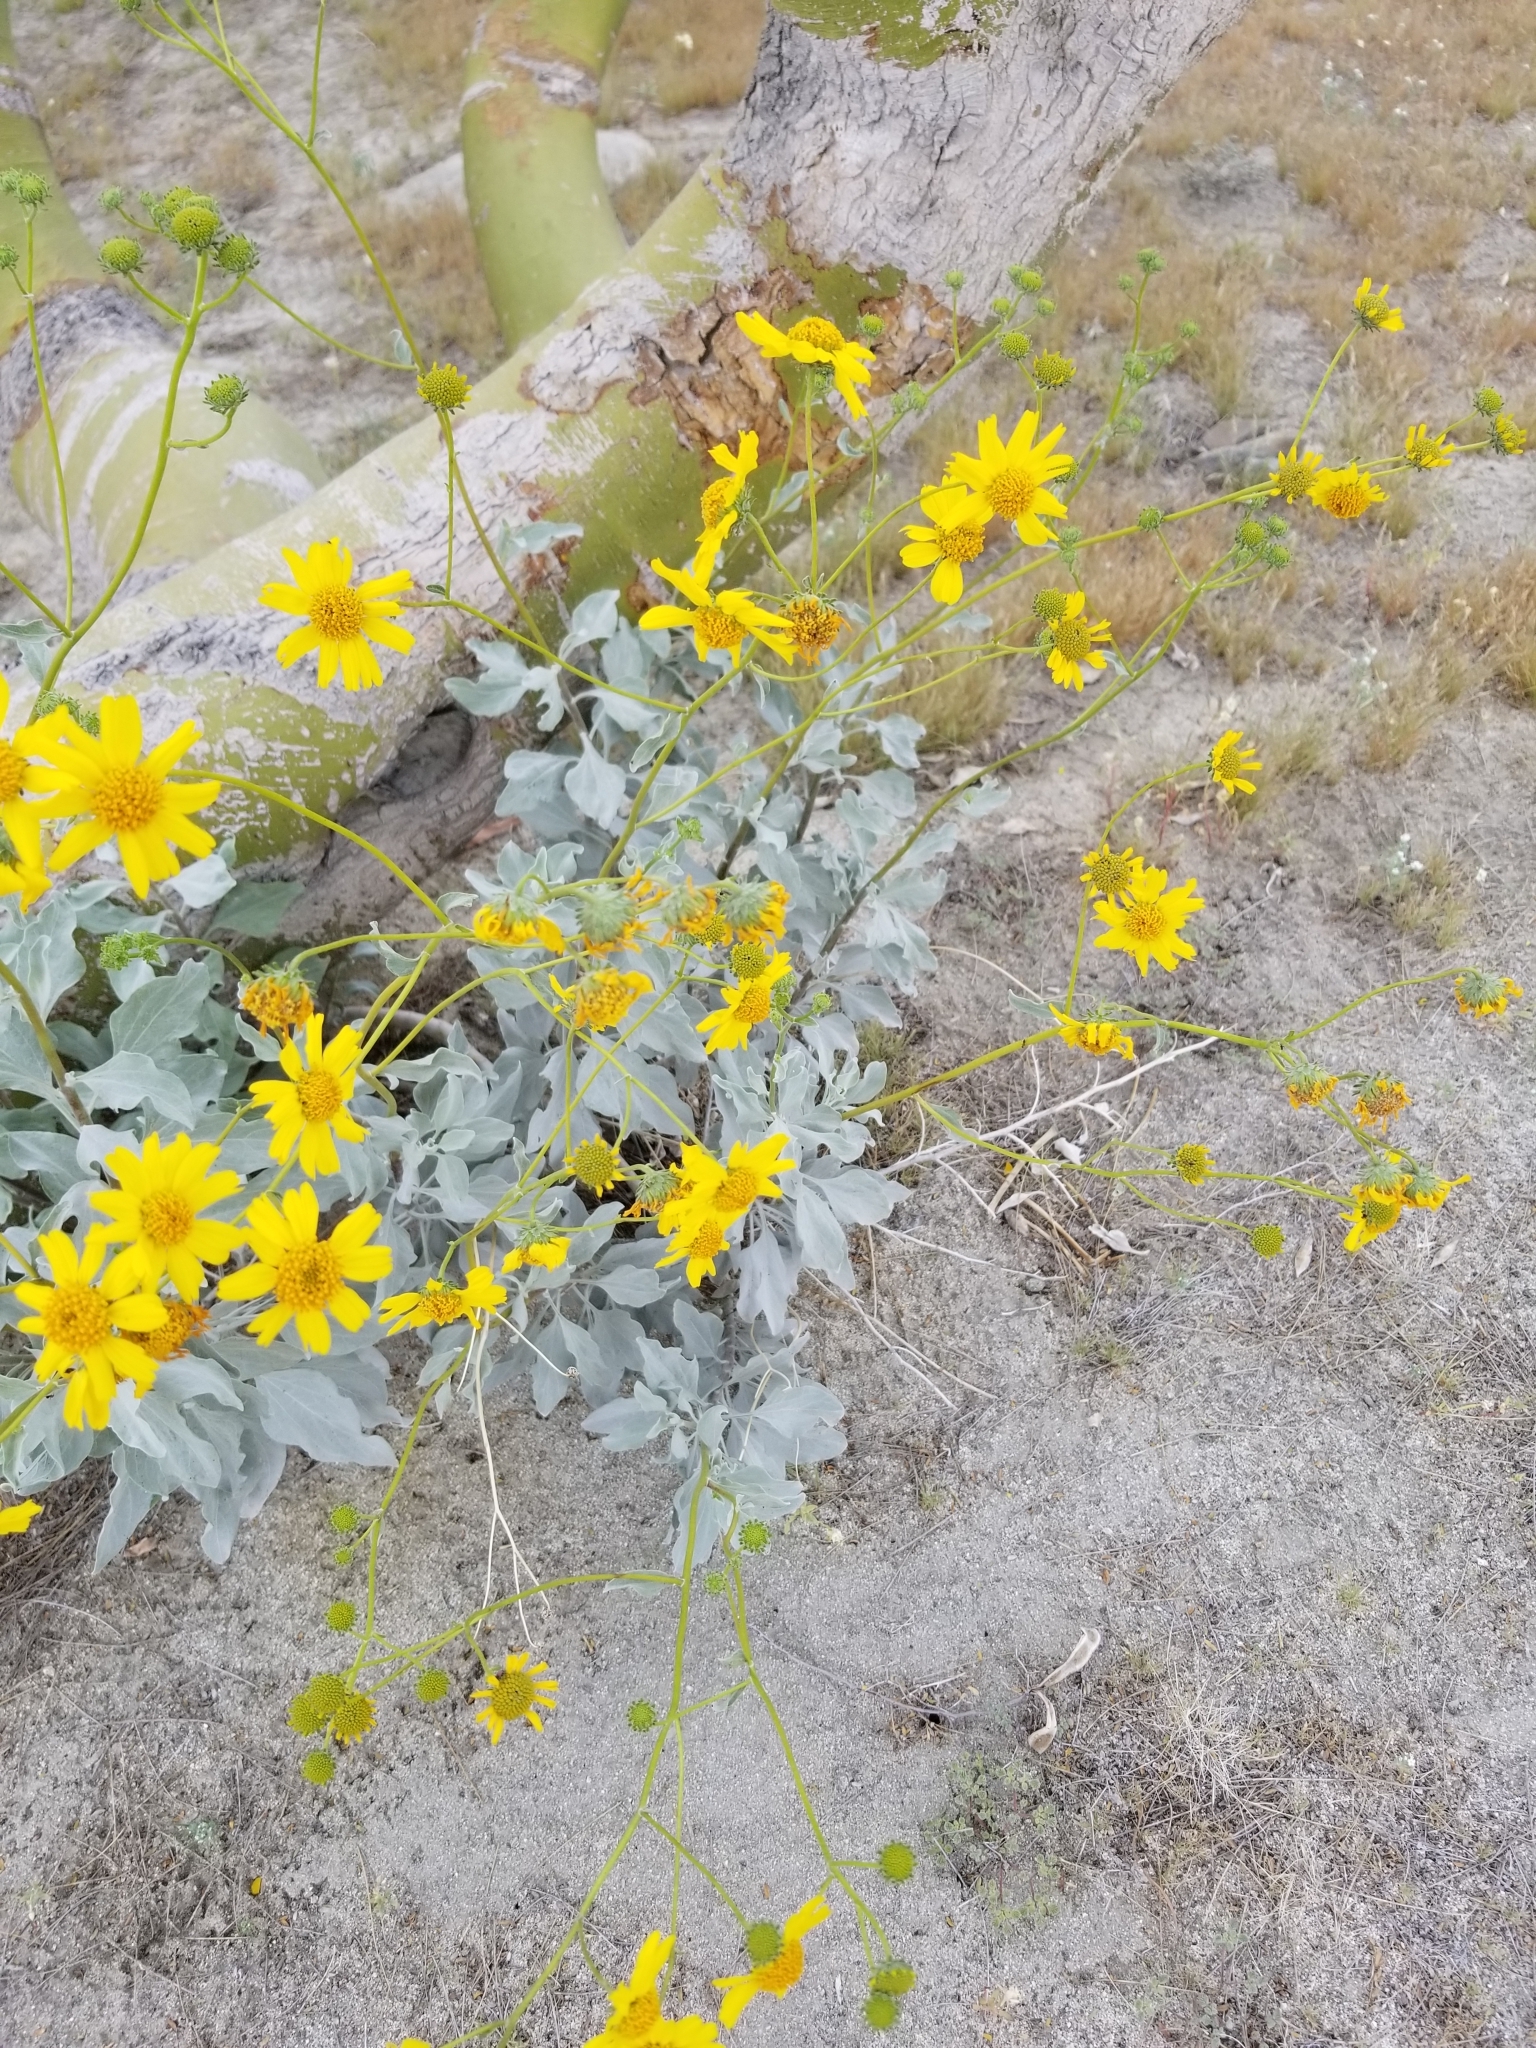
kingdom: Plantae
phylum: Tracheophyta
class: Magnoliopsida
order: Asterales
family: Asteraceae
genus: Encelia
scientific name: Encelia farinosa
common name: Brittlebush
